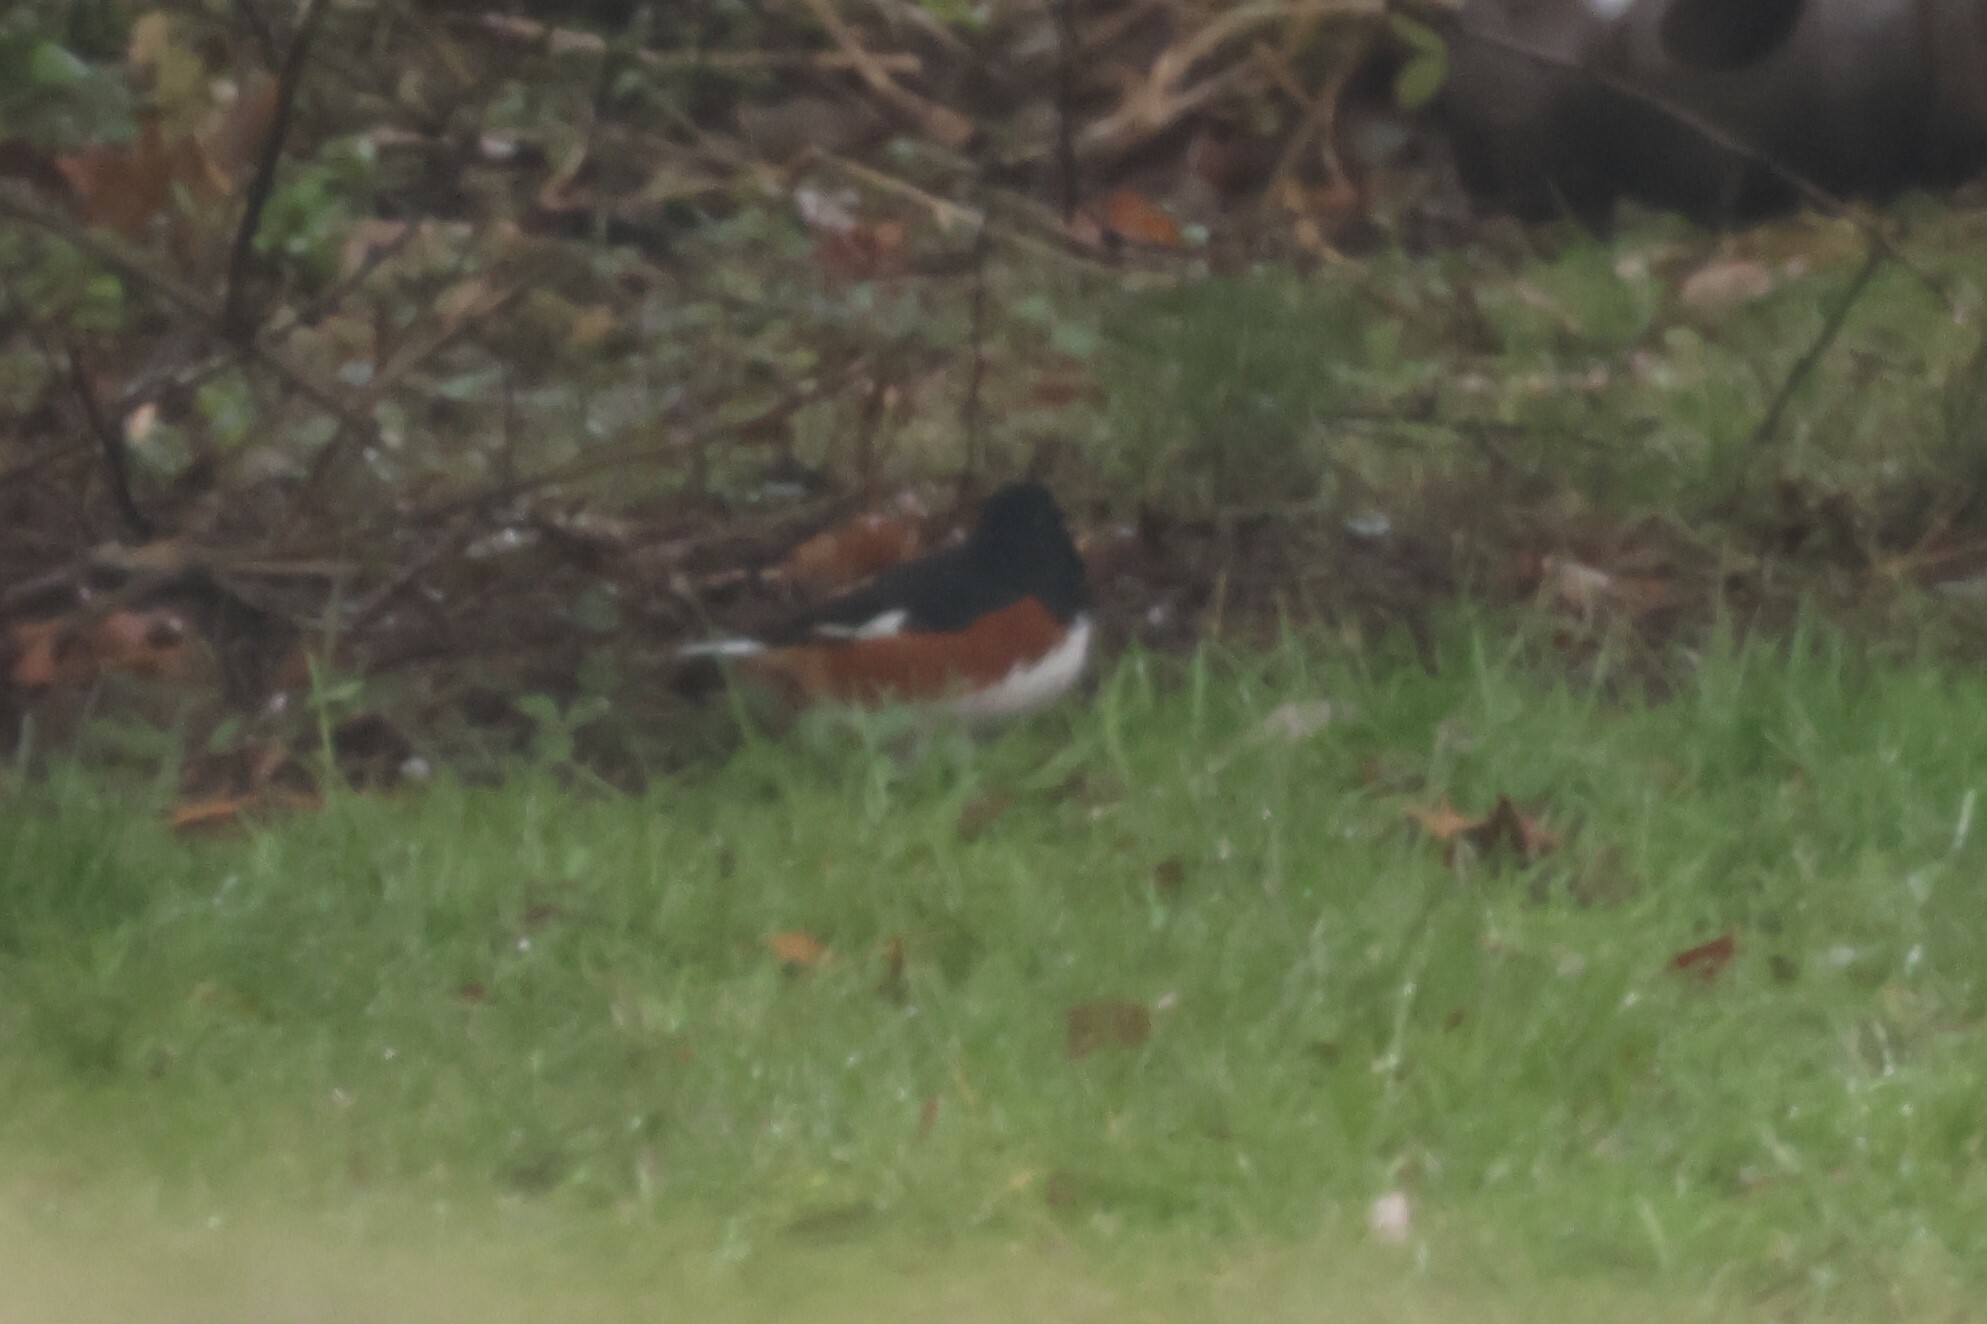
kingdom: Animalia
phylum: Chordata
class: Aves
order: Passeriformes
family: Passerellidae
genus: Pipilo
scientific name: Pipilo erythrophthalmus
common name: Eastern towhee
